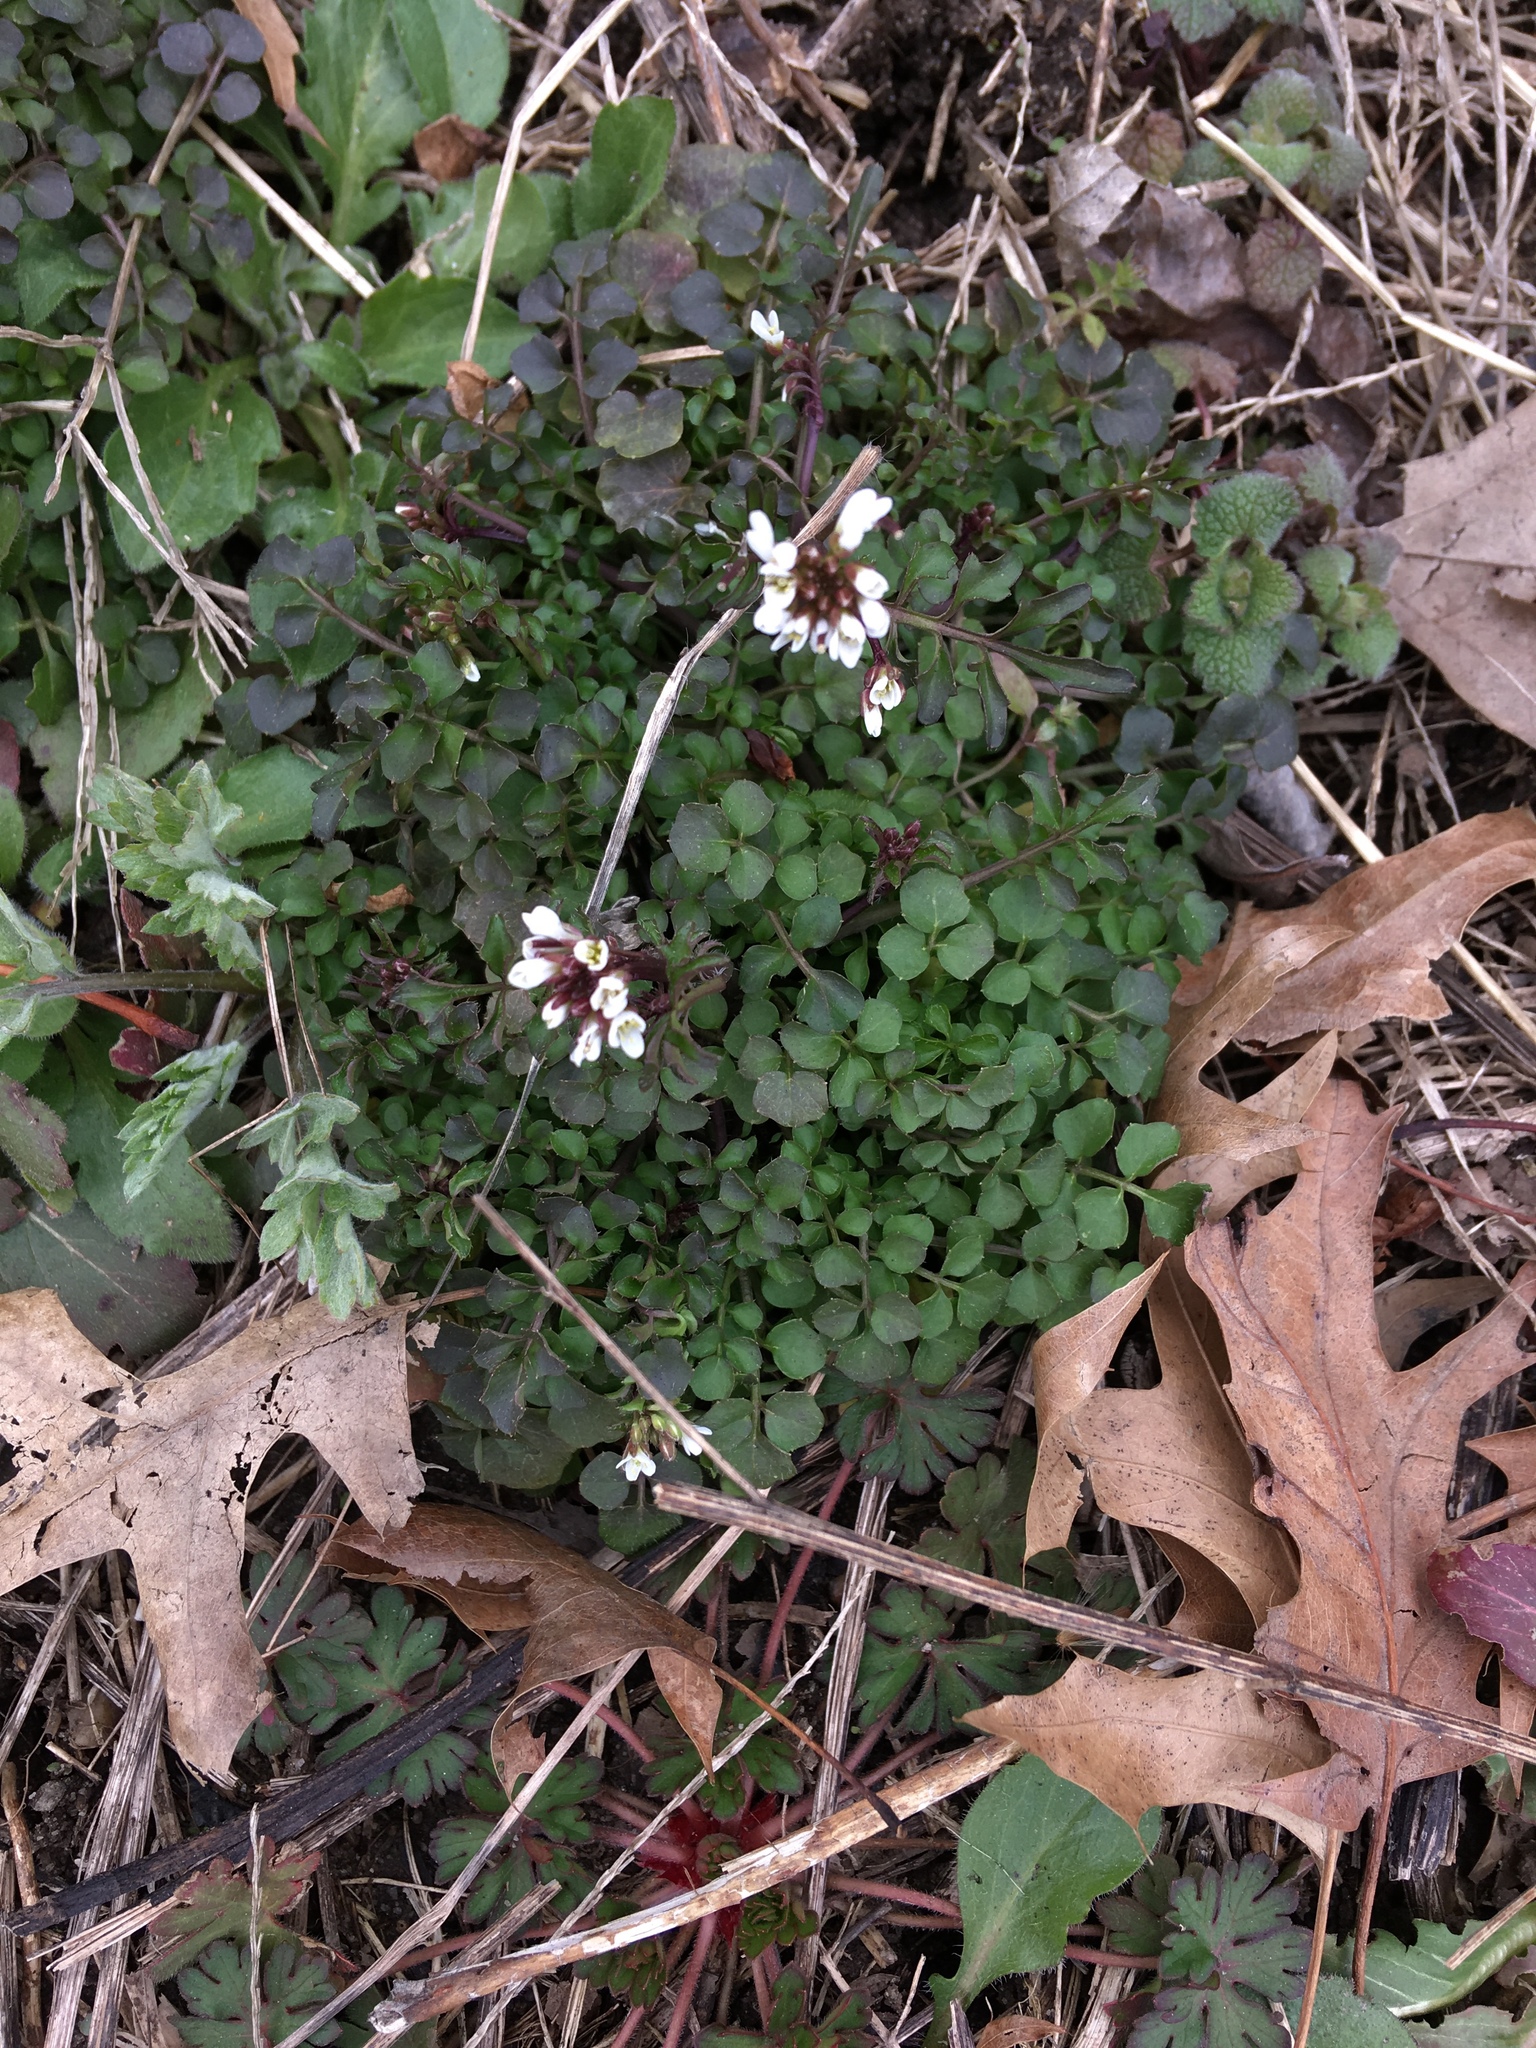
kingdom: Plantae
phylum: Tracheophyta
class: Magnoliopsida
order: Brassicales
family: Brassicaceae
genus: Cardamine
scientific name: Cardamine hirsuta
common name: Hairy bittercress
